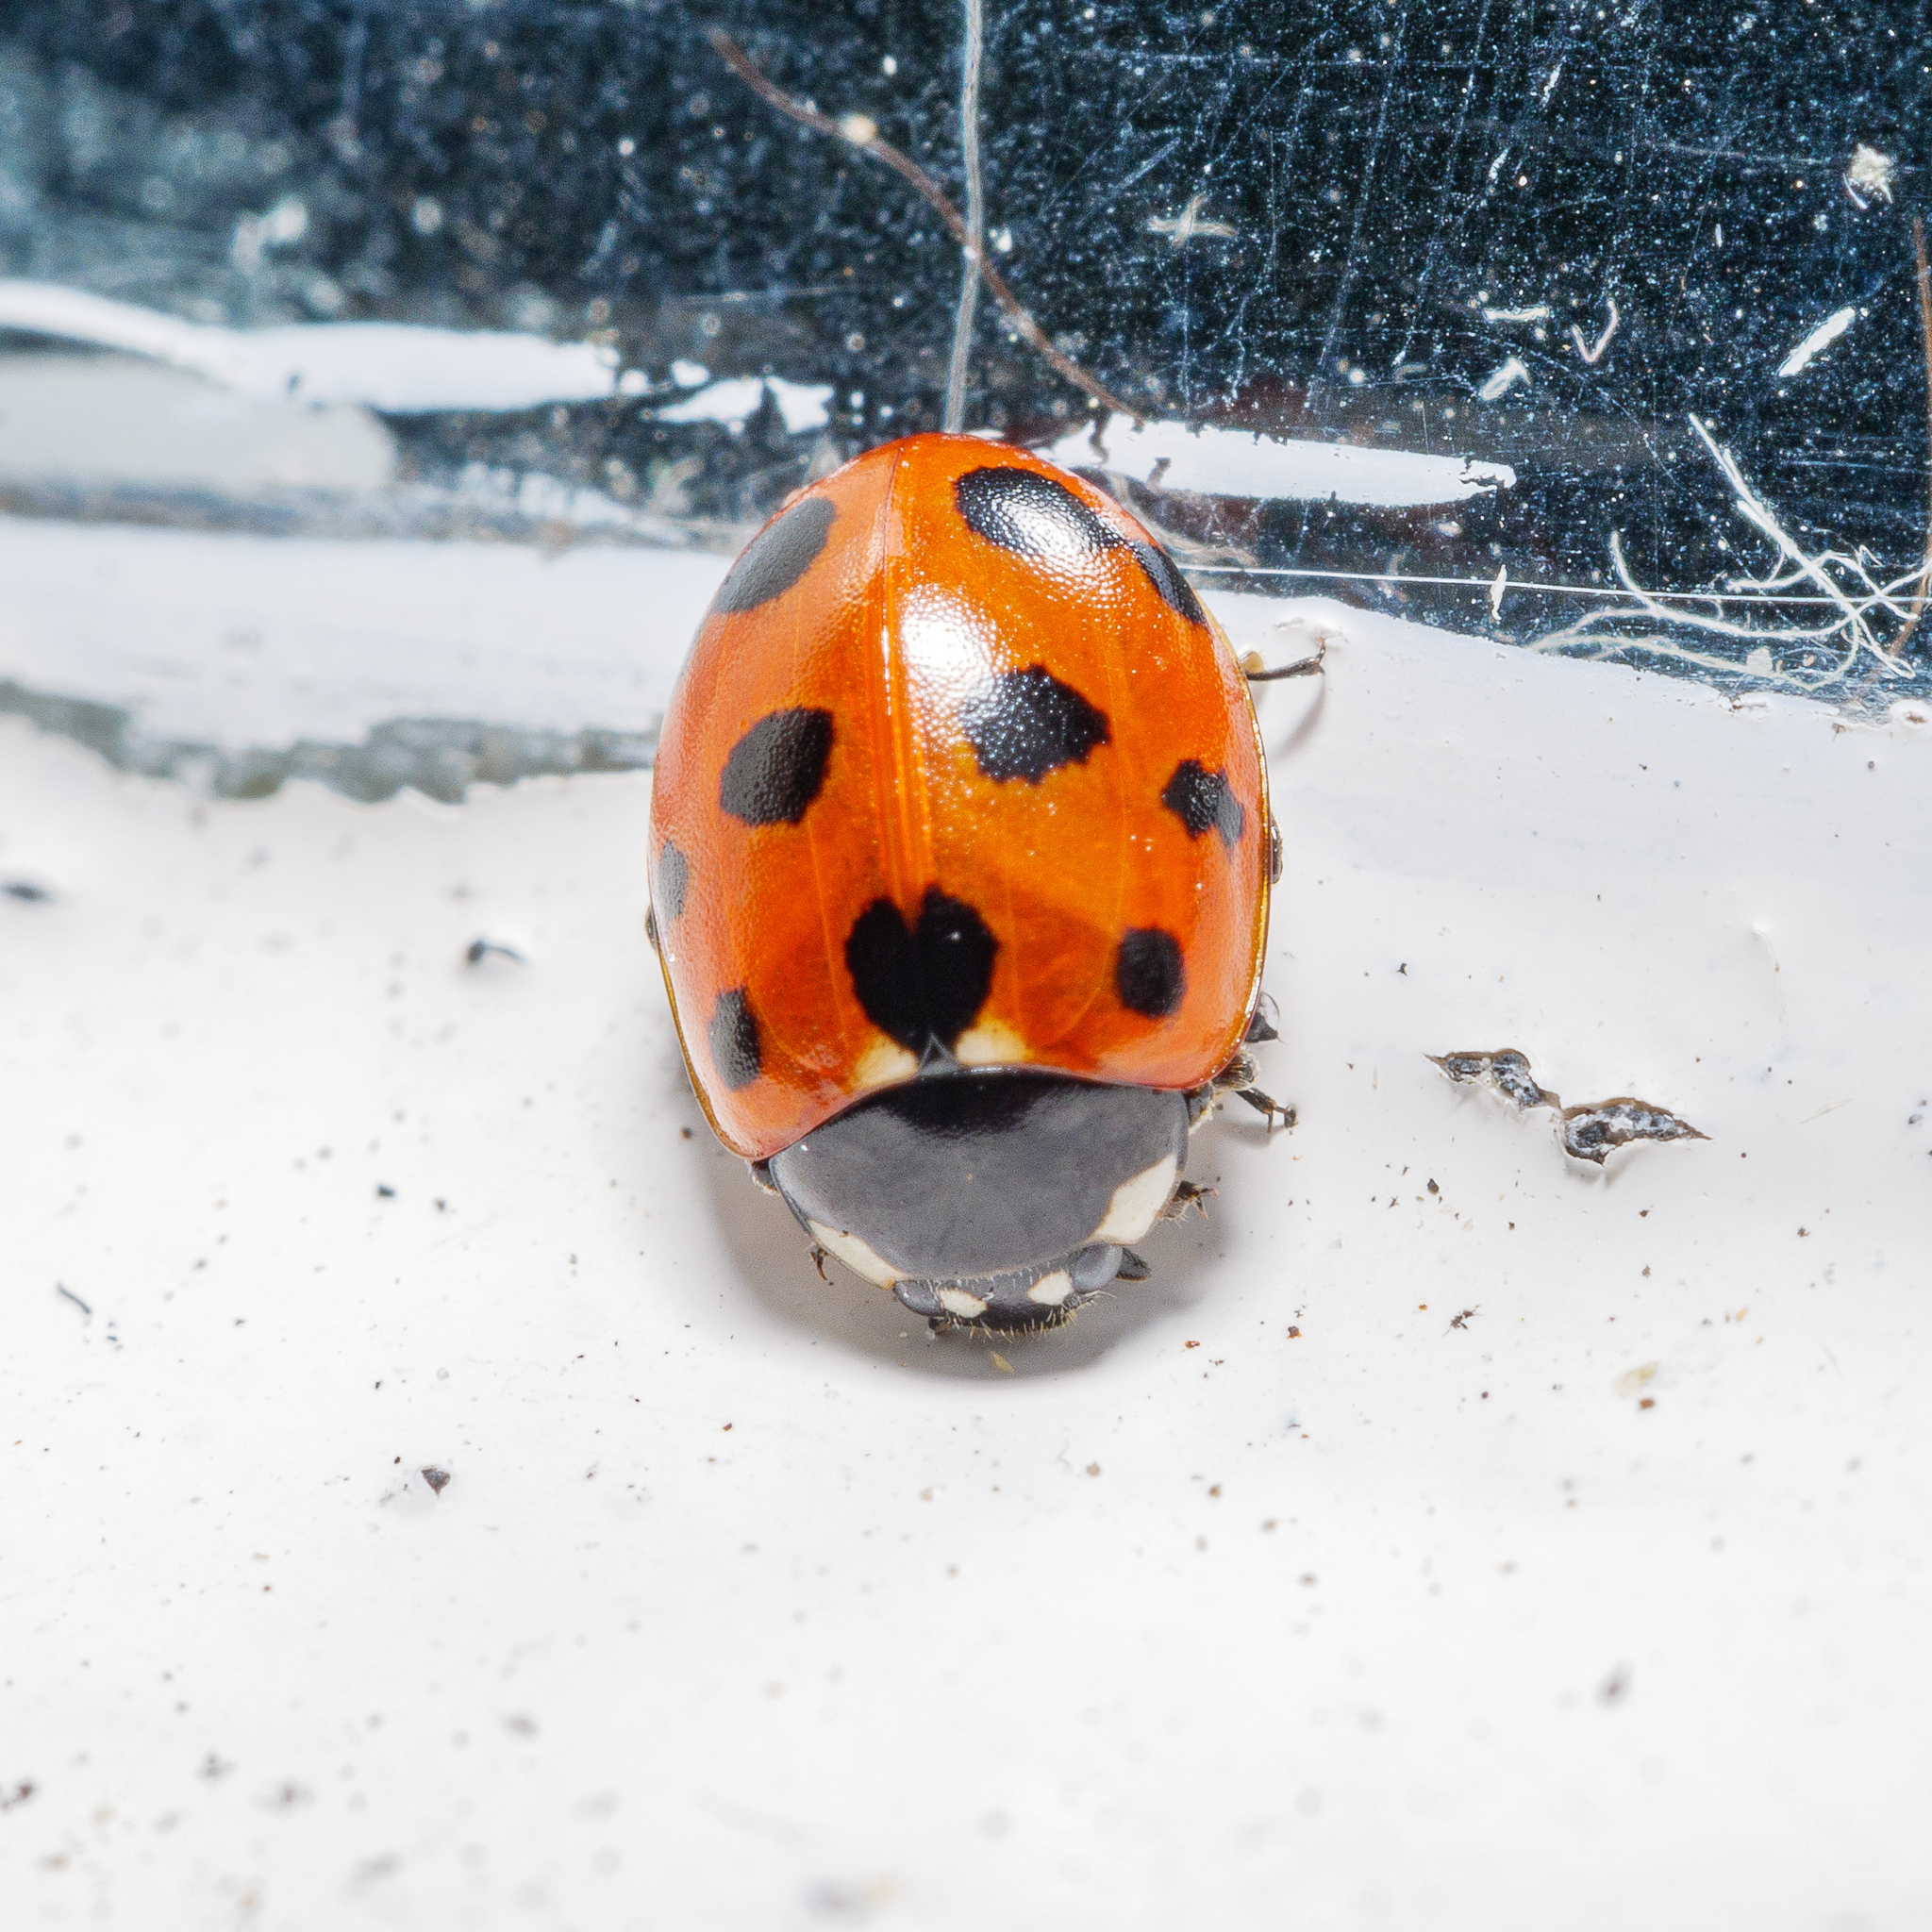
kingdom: Animalia
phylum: Arthropoda
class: Insecta
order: Coleoptera
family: Coccinellidae
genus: Coccinella
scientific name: Coccinella undecimpunctata
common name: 11-spot ladybird
